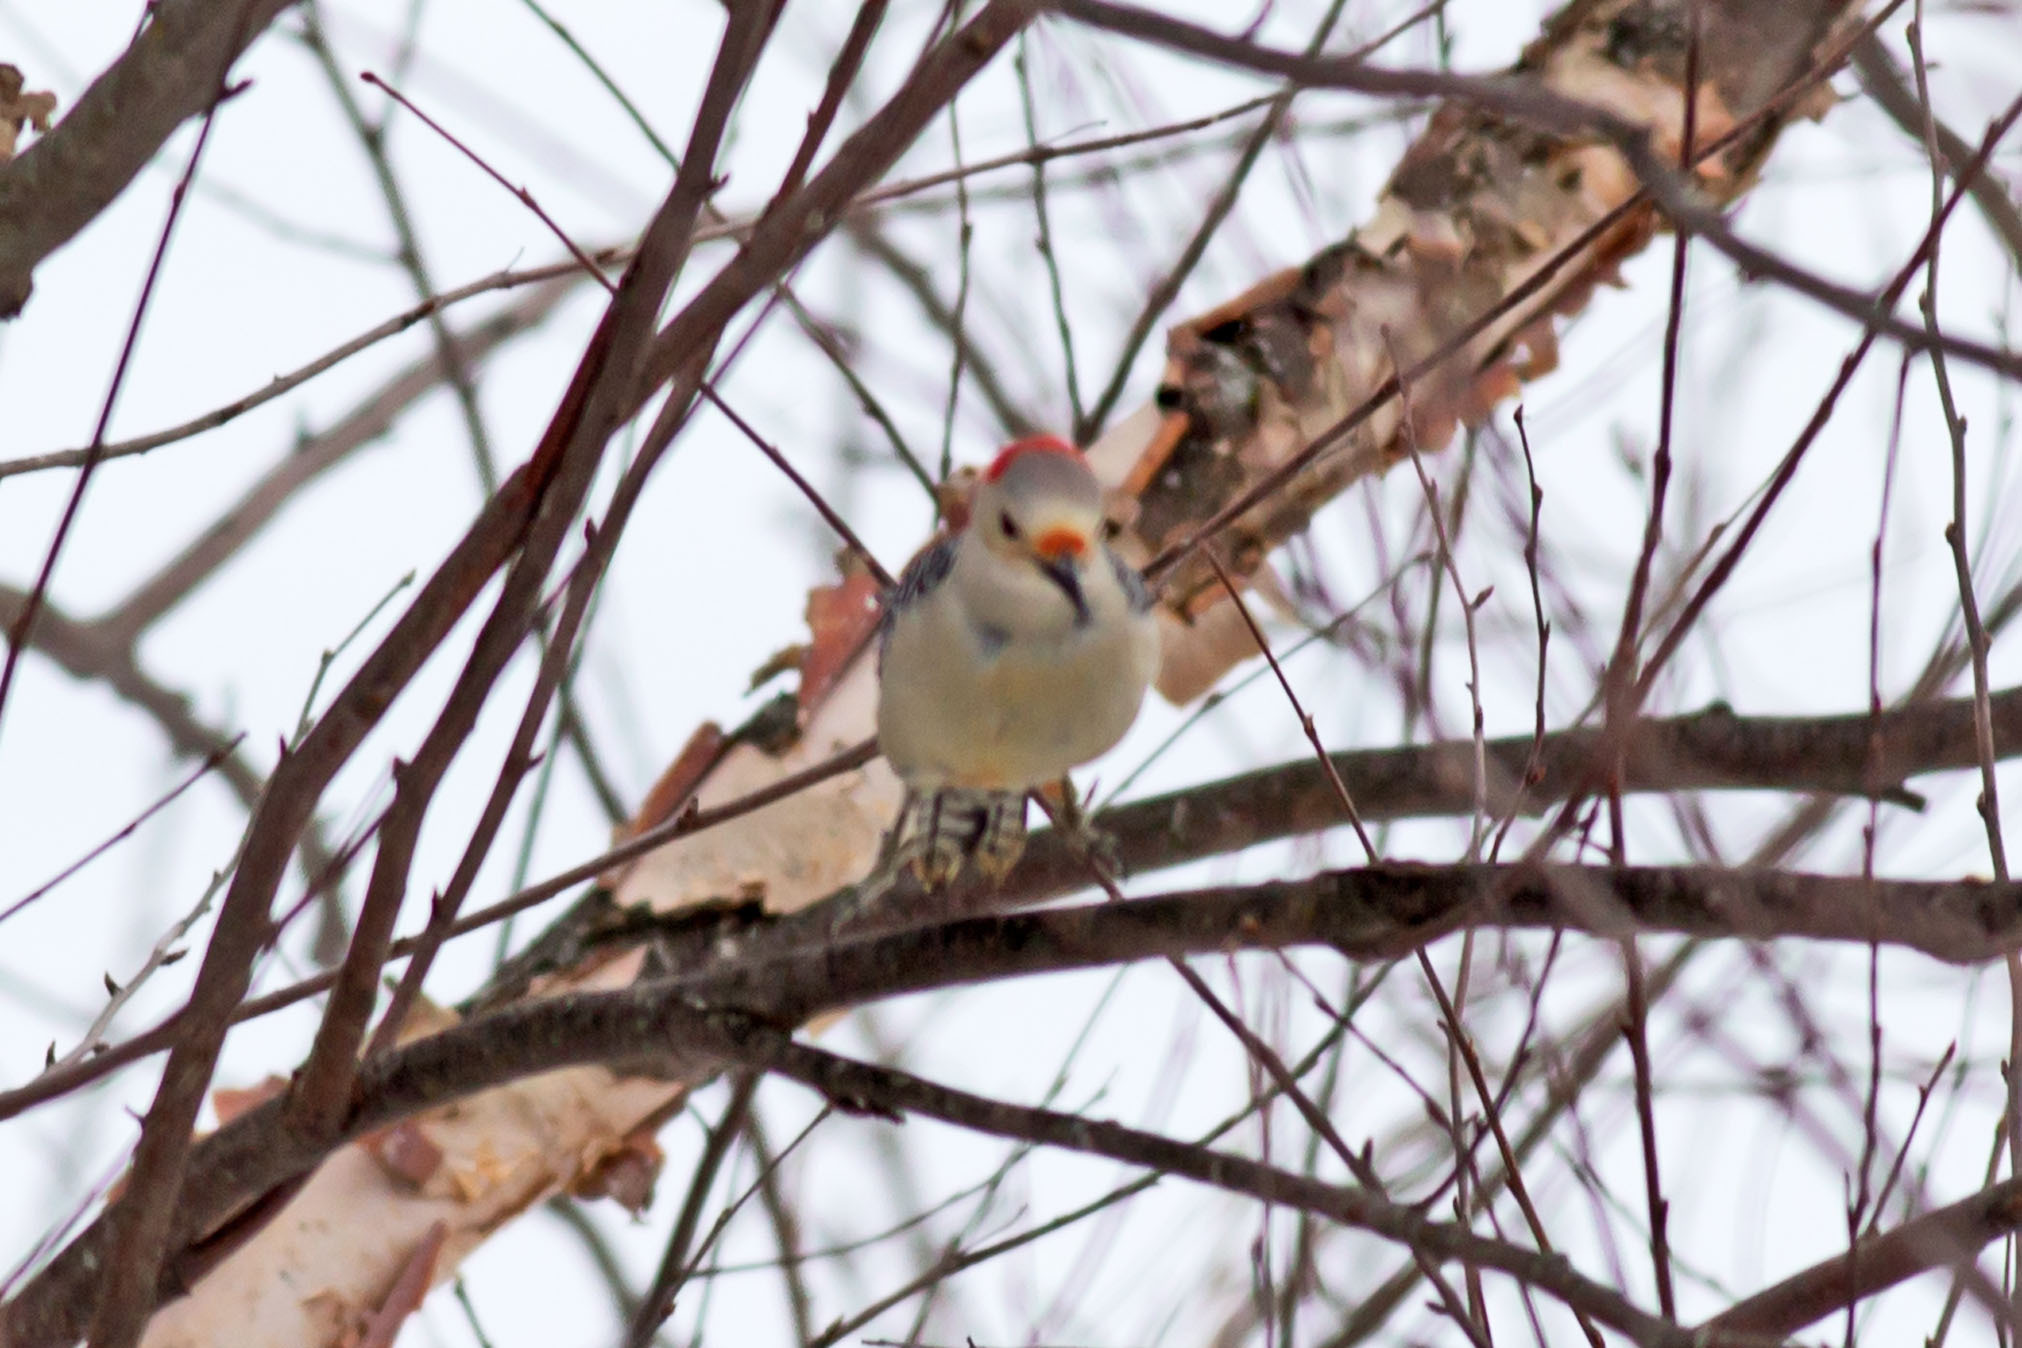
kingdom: Animalia
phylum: Chordata
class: Aves
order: Piciformes
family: Picidae
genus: Melanerpes
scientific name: Melanerpes carolinus
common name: Red-bellied woodpecker
